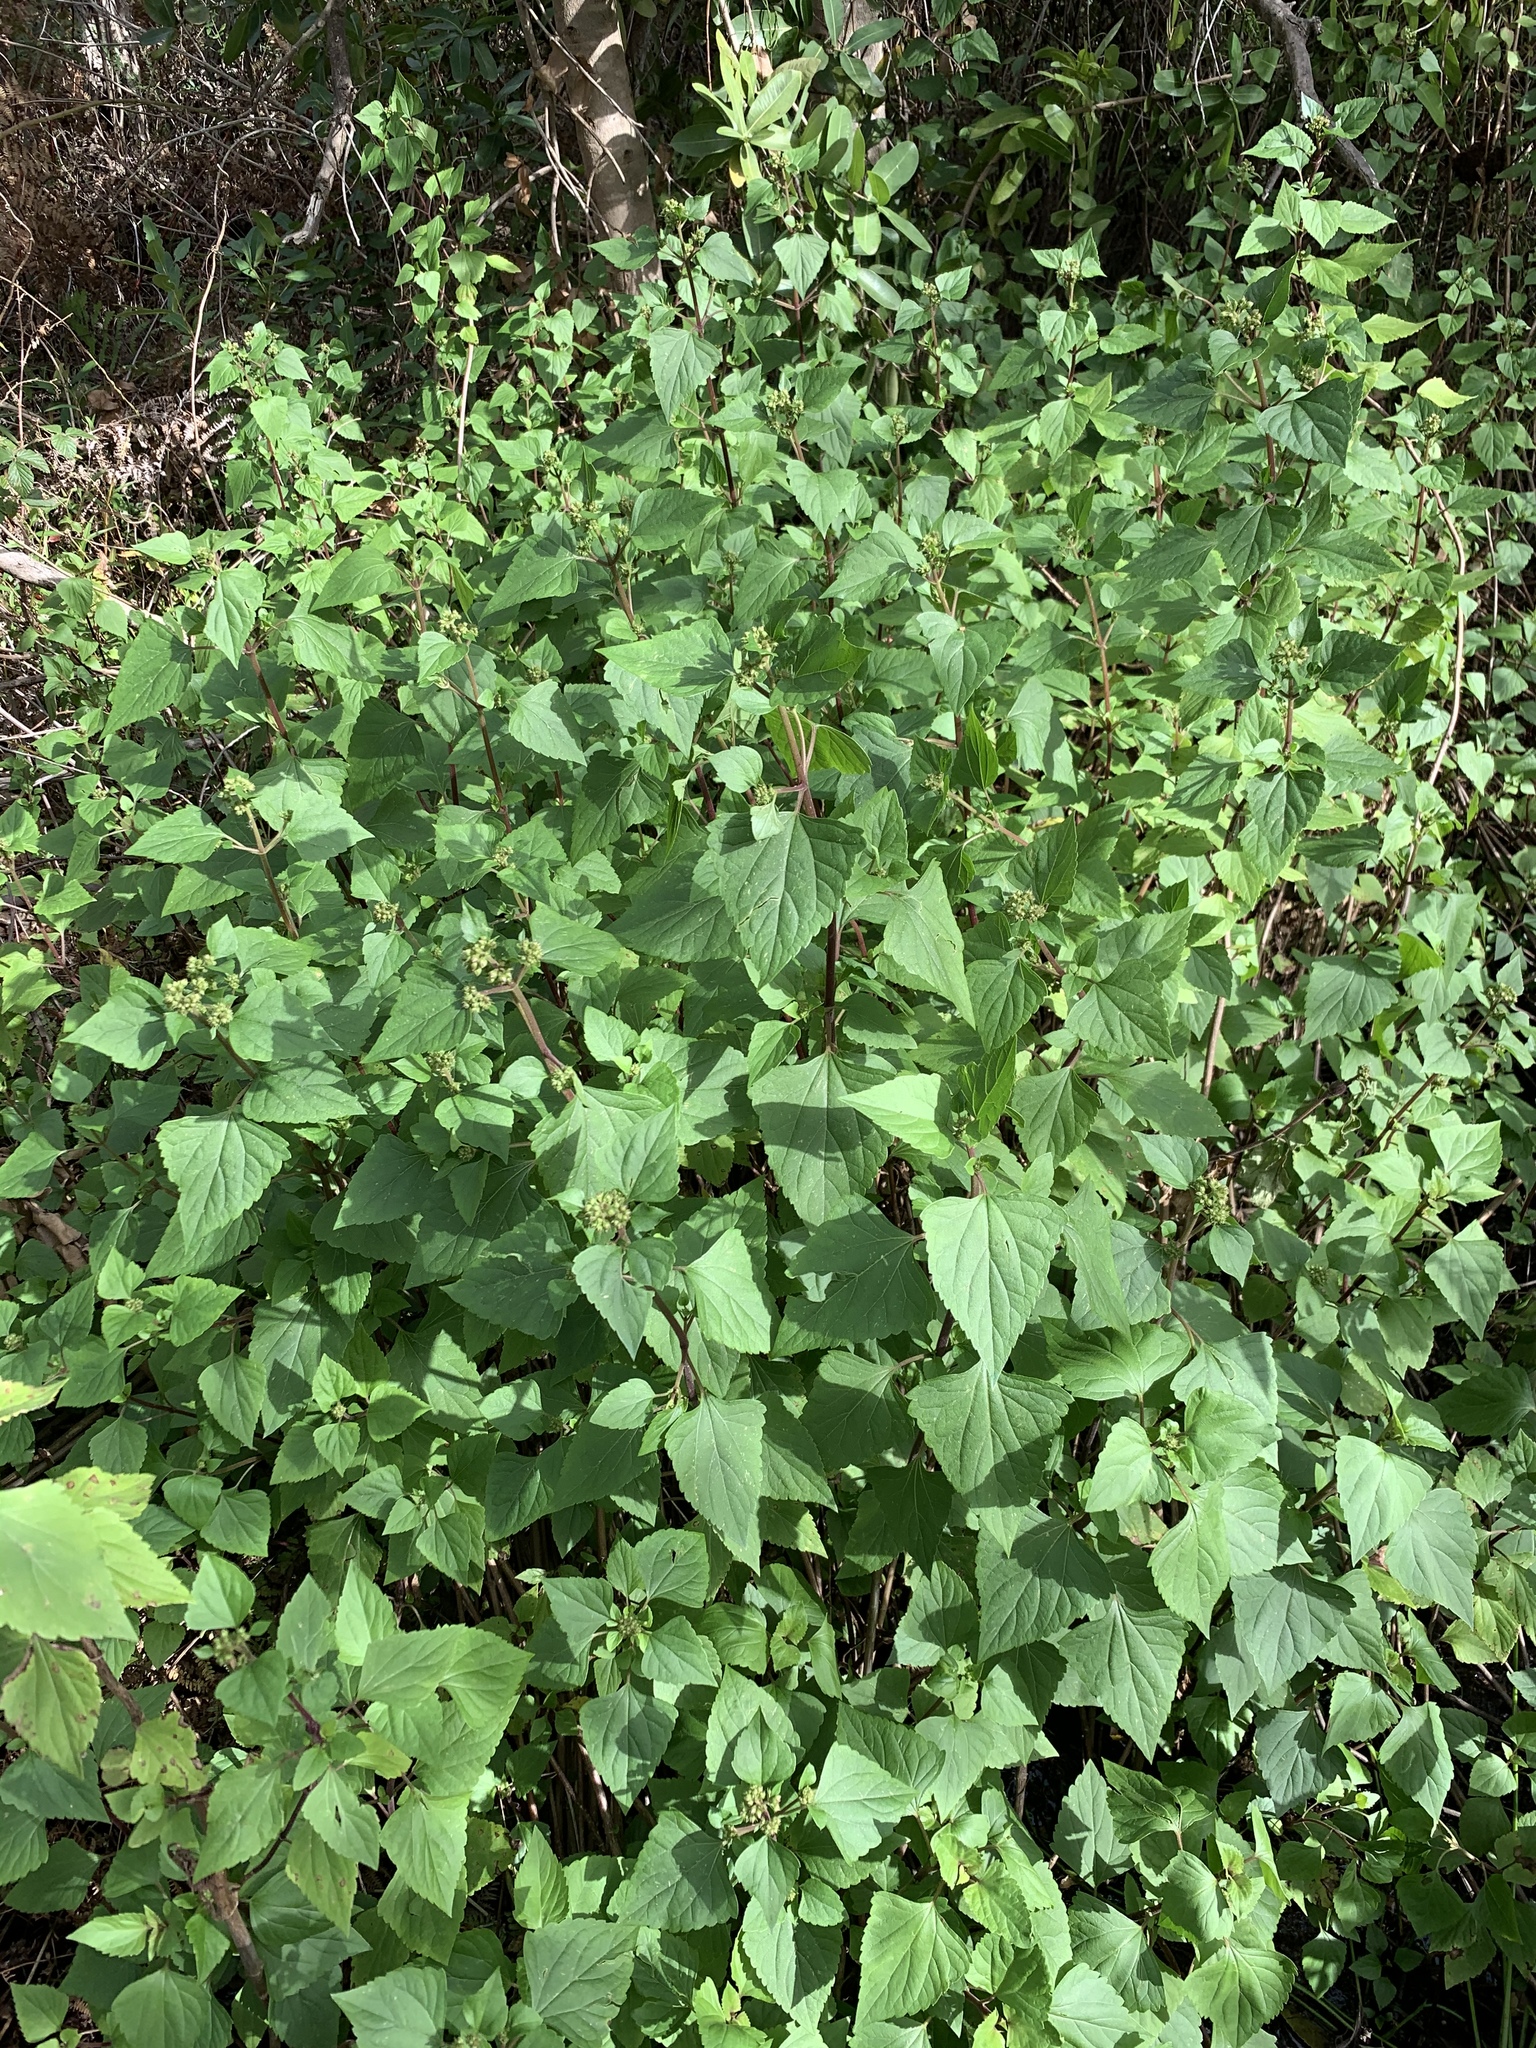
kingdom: Plantae
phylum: Tracheophyta
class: Magnoliopsida
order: Asterales
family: Asteraceae
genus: Ageratina
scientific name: Ageratina adenophora
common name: Sticky snakeroot
